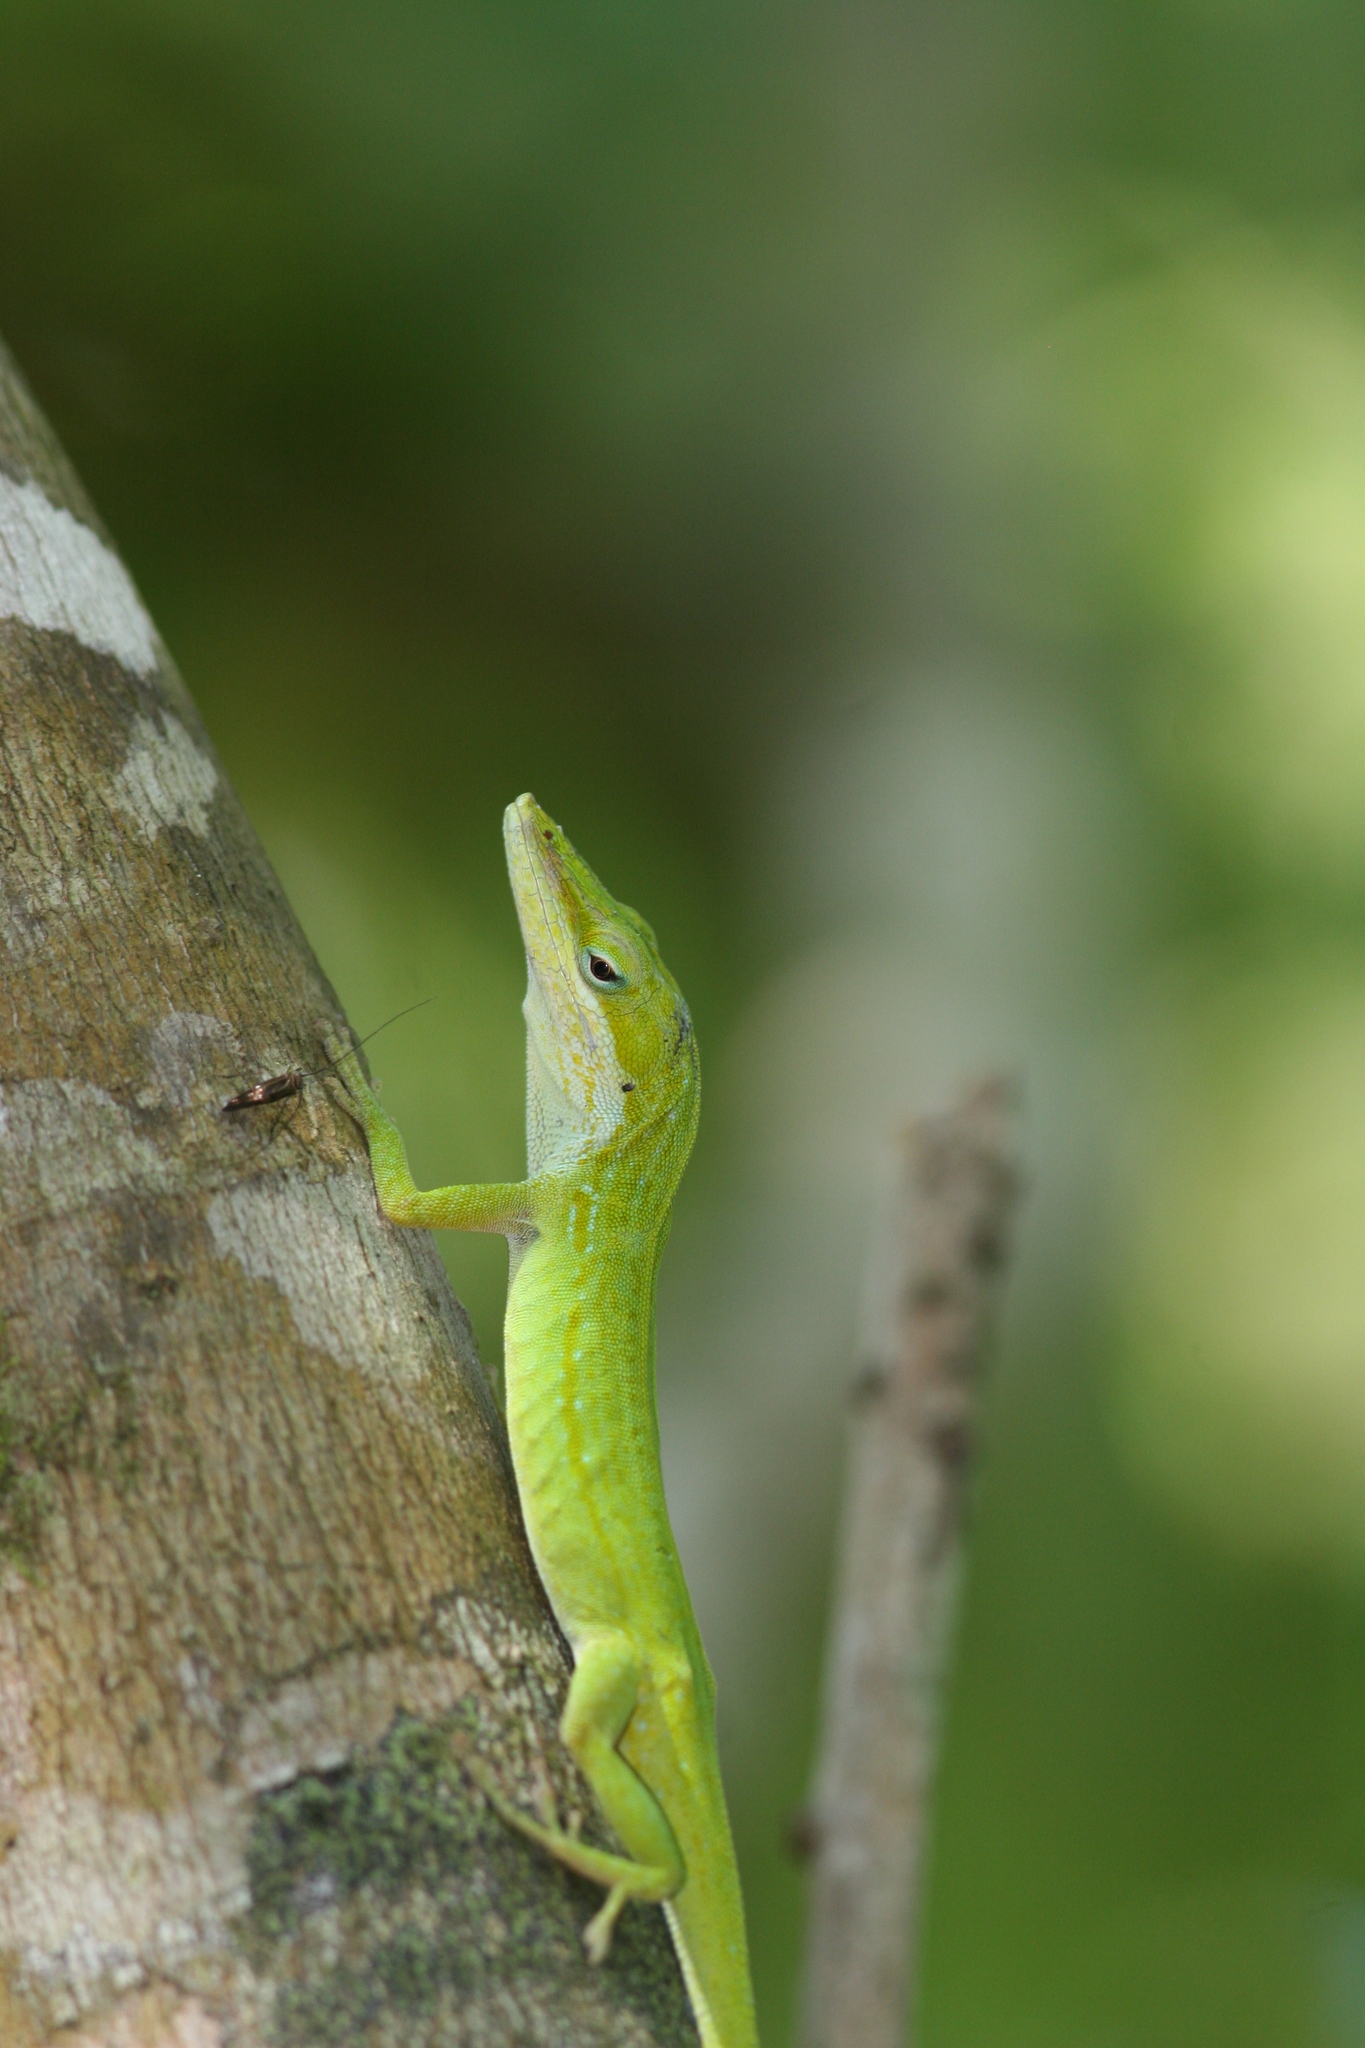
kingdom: Animalia
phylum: Chordata
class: Squamata
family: Dactyloidae
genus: Anolis
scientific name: Anolis carolinensis
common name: Green anole
